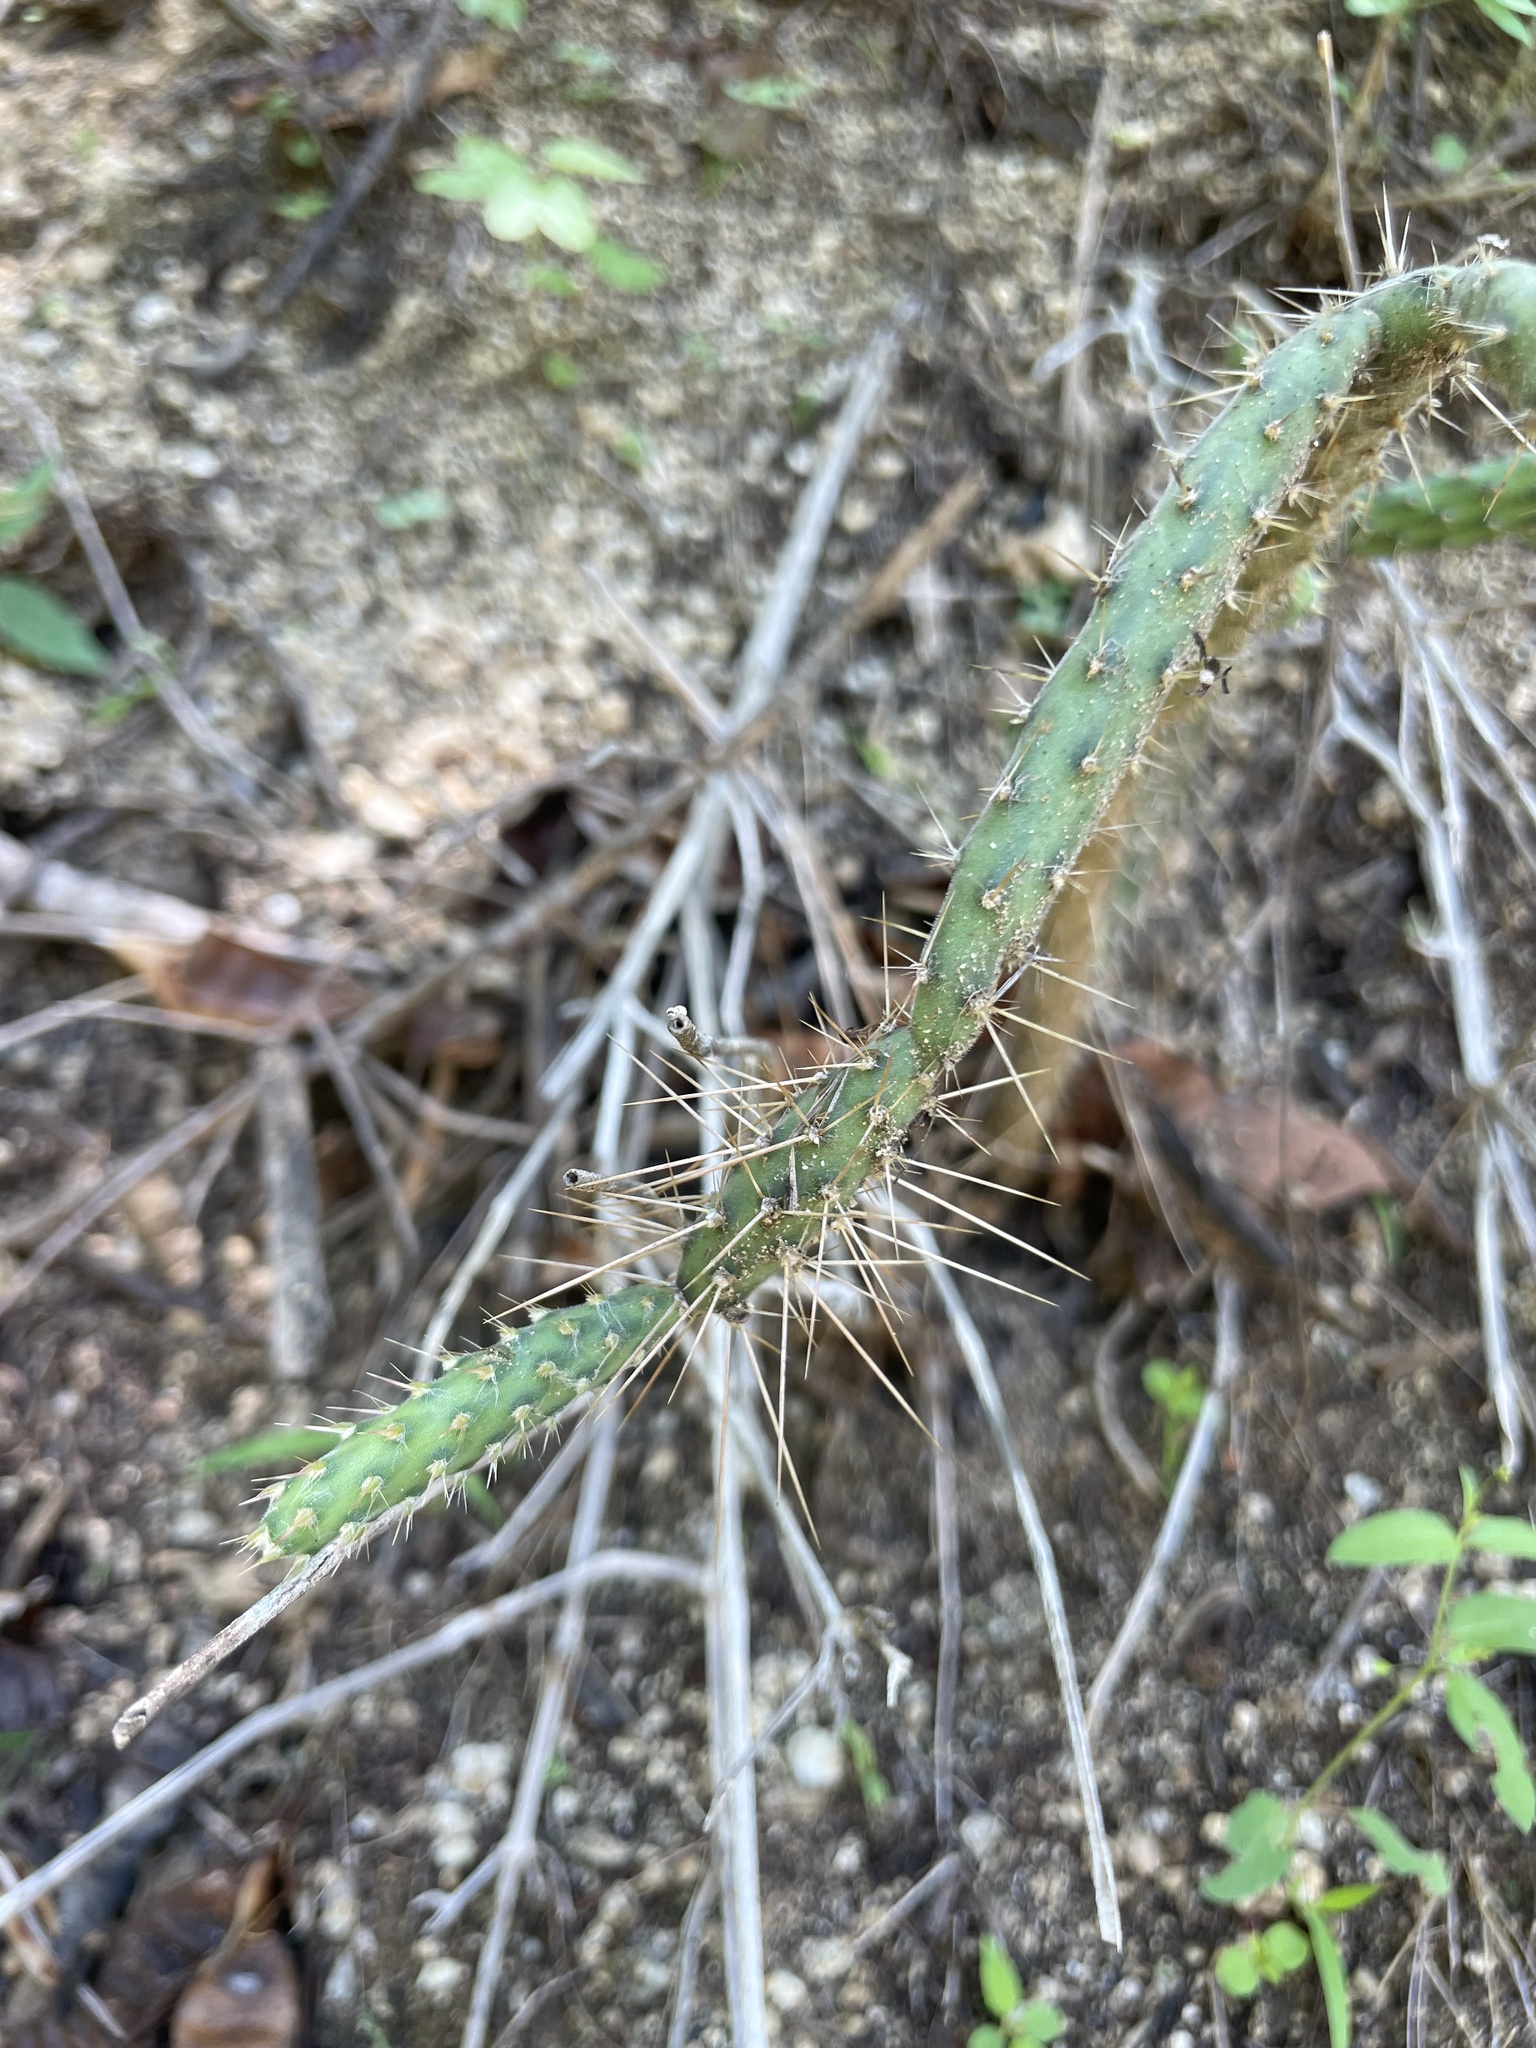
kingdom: Plantae
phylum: Tracheophyta
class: Magnoliopsida
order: Caryophyllales
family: Cactaceae
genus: Opuntia
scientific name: Opuntia pubescens
